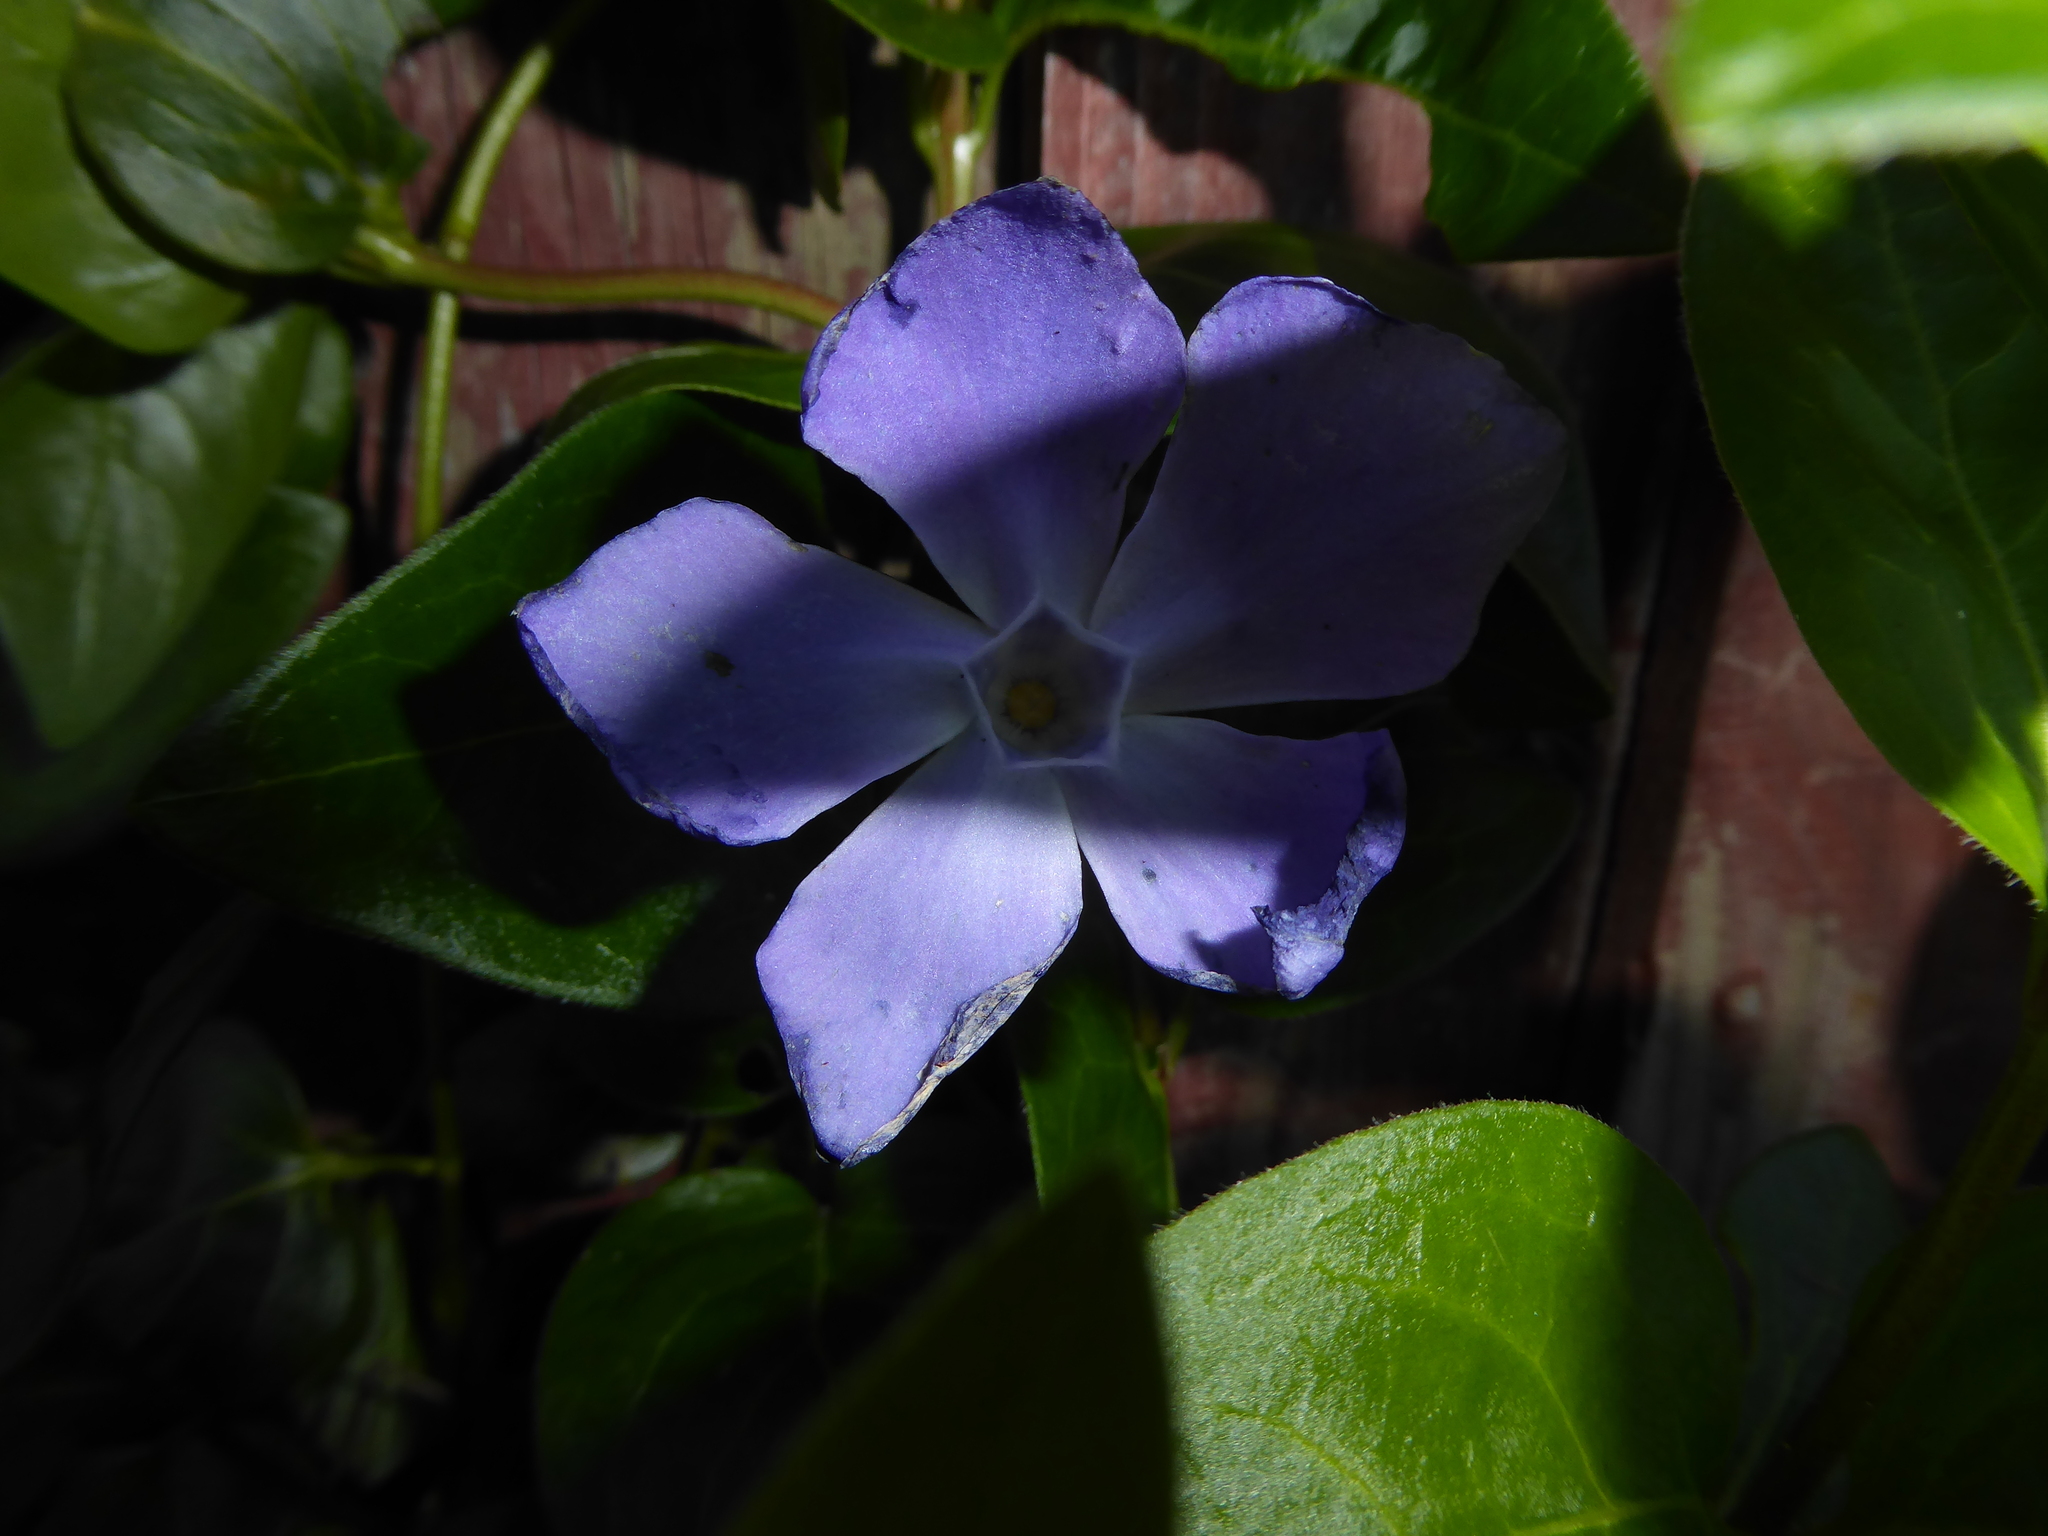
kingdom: Plantae
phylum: Tracheophyta
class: Magnoliopsida
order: Gentianales
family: Apocynaceae
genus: Vinca
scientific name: Vinca major
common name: Greater periwinkle
